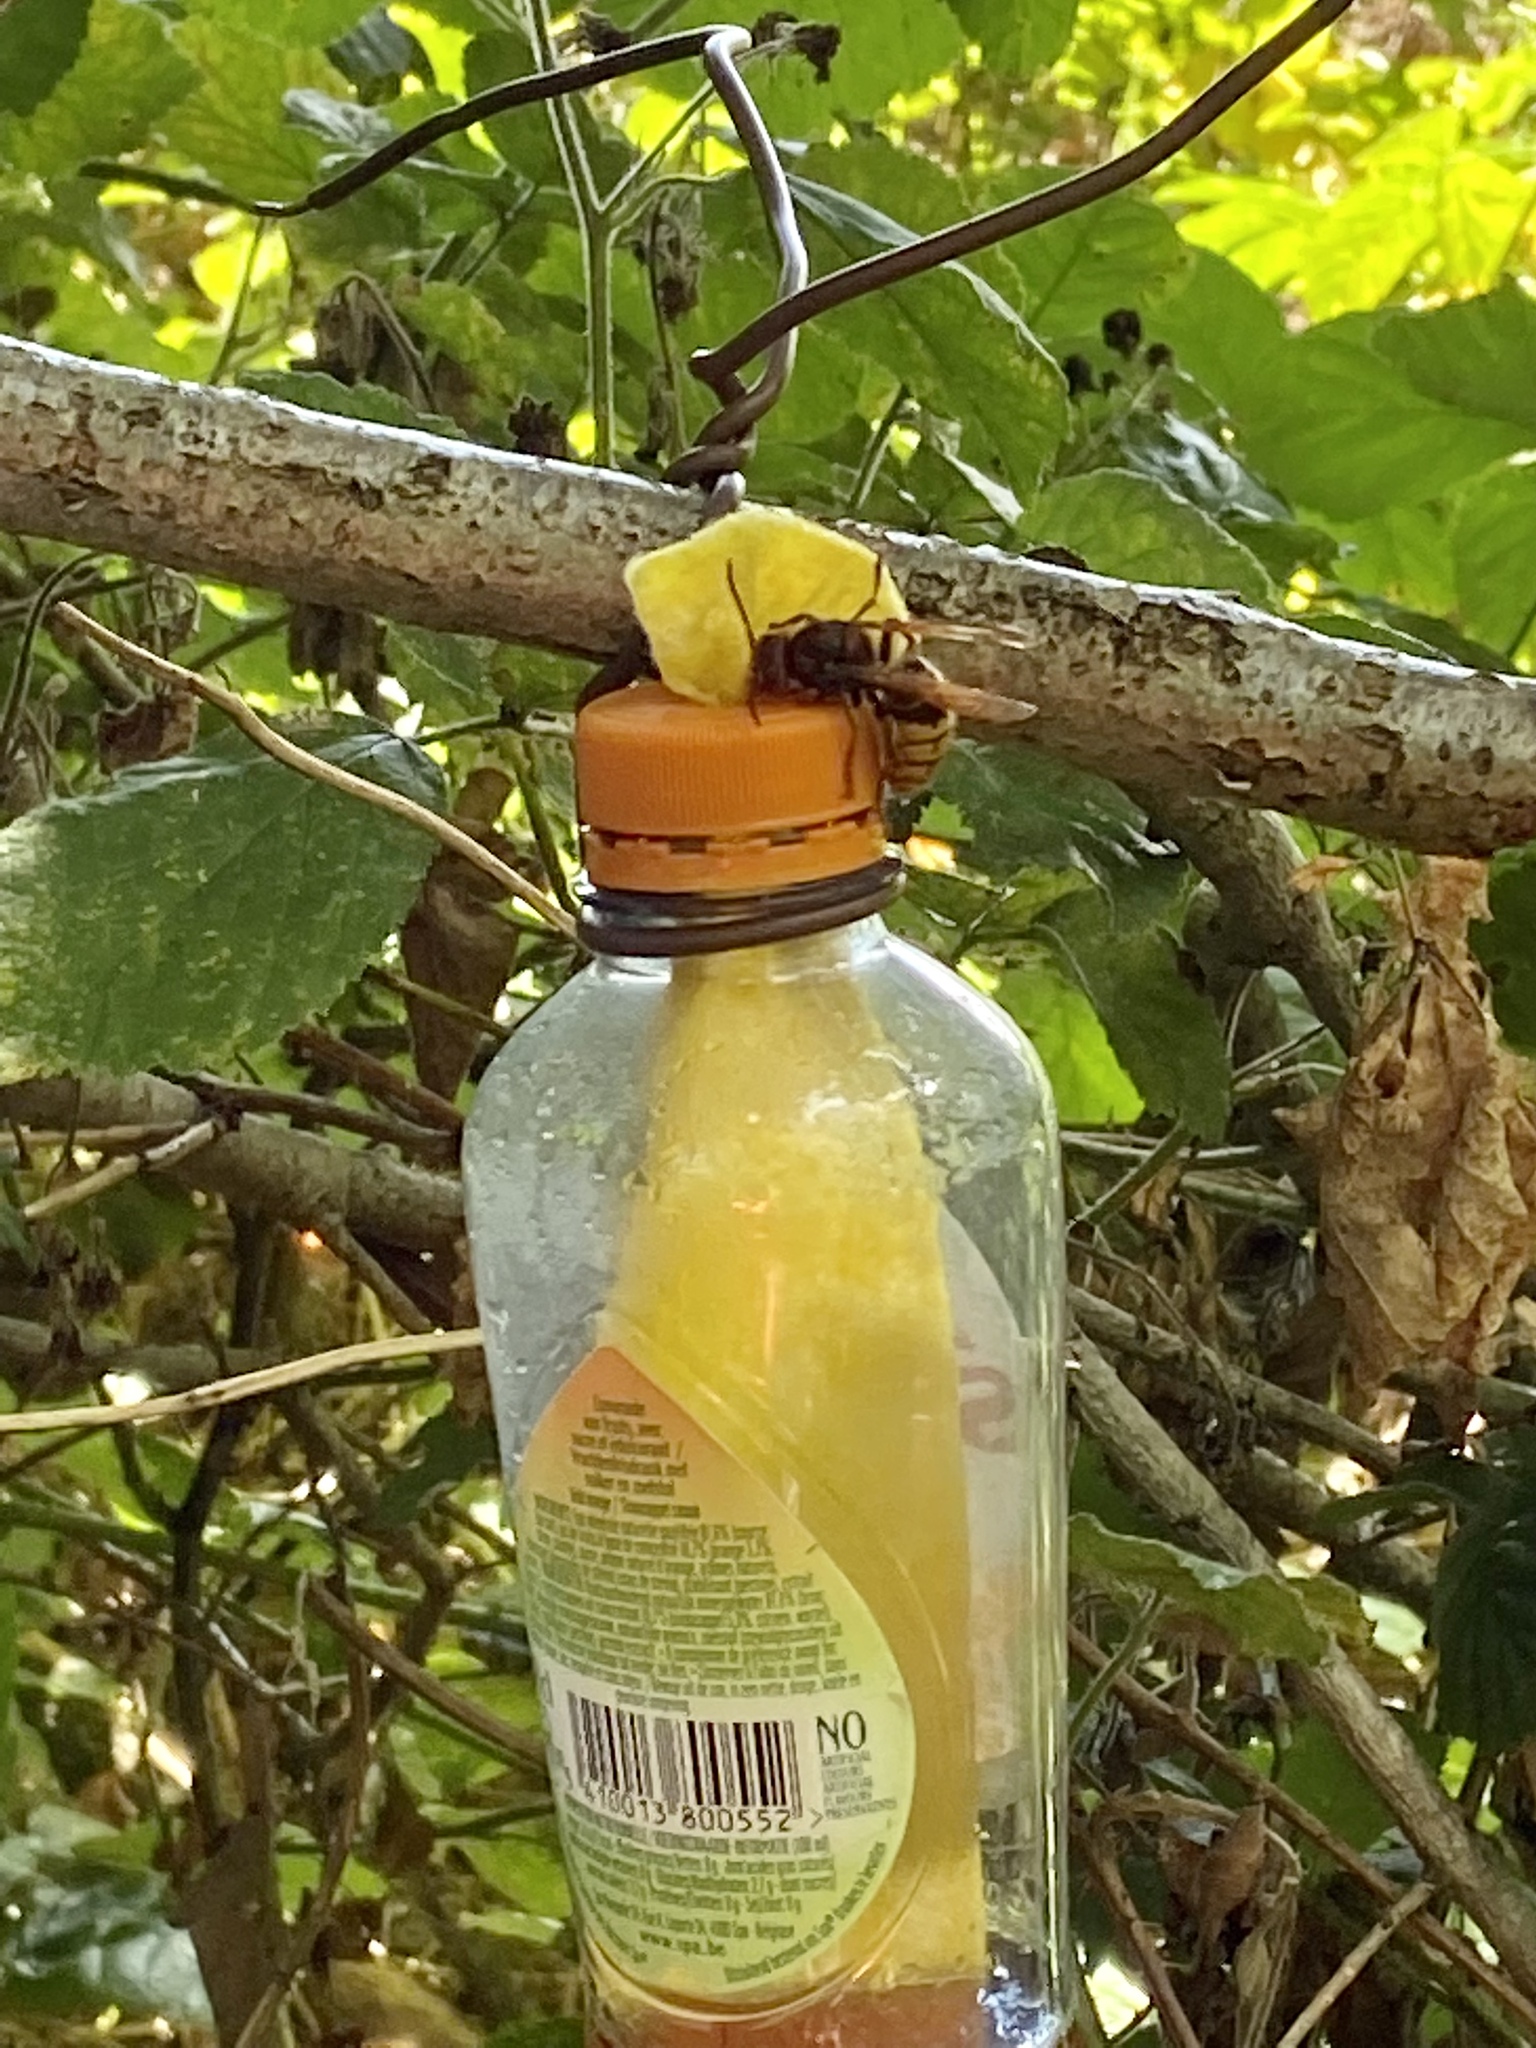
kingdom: Animalia
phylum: Arthropoda
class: Insecta
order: Hymenoptera
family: Vespidae
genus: Vespa
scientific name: Vespa crabro
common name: Hornet
